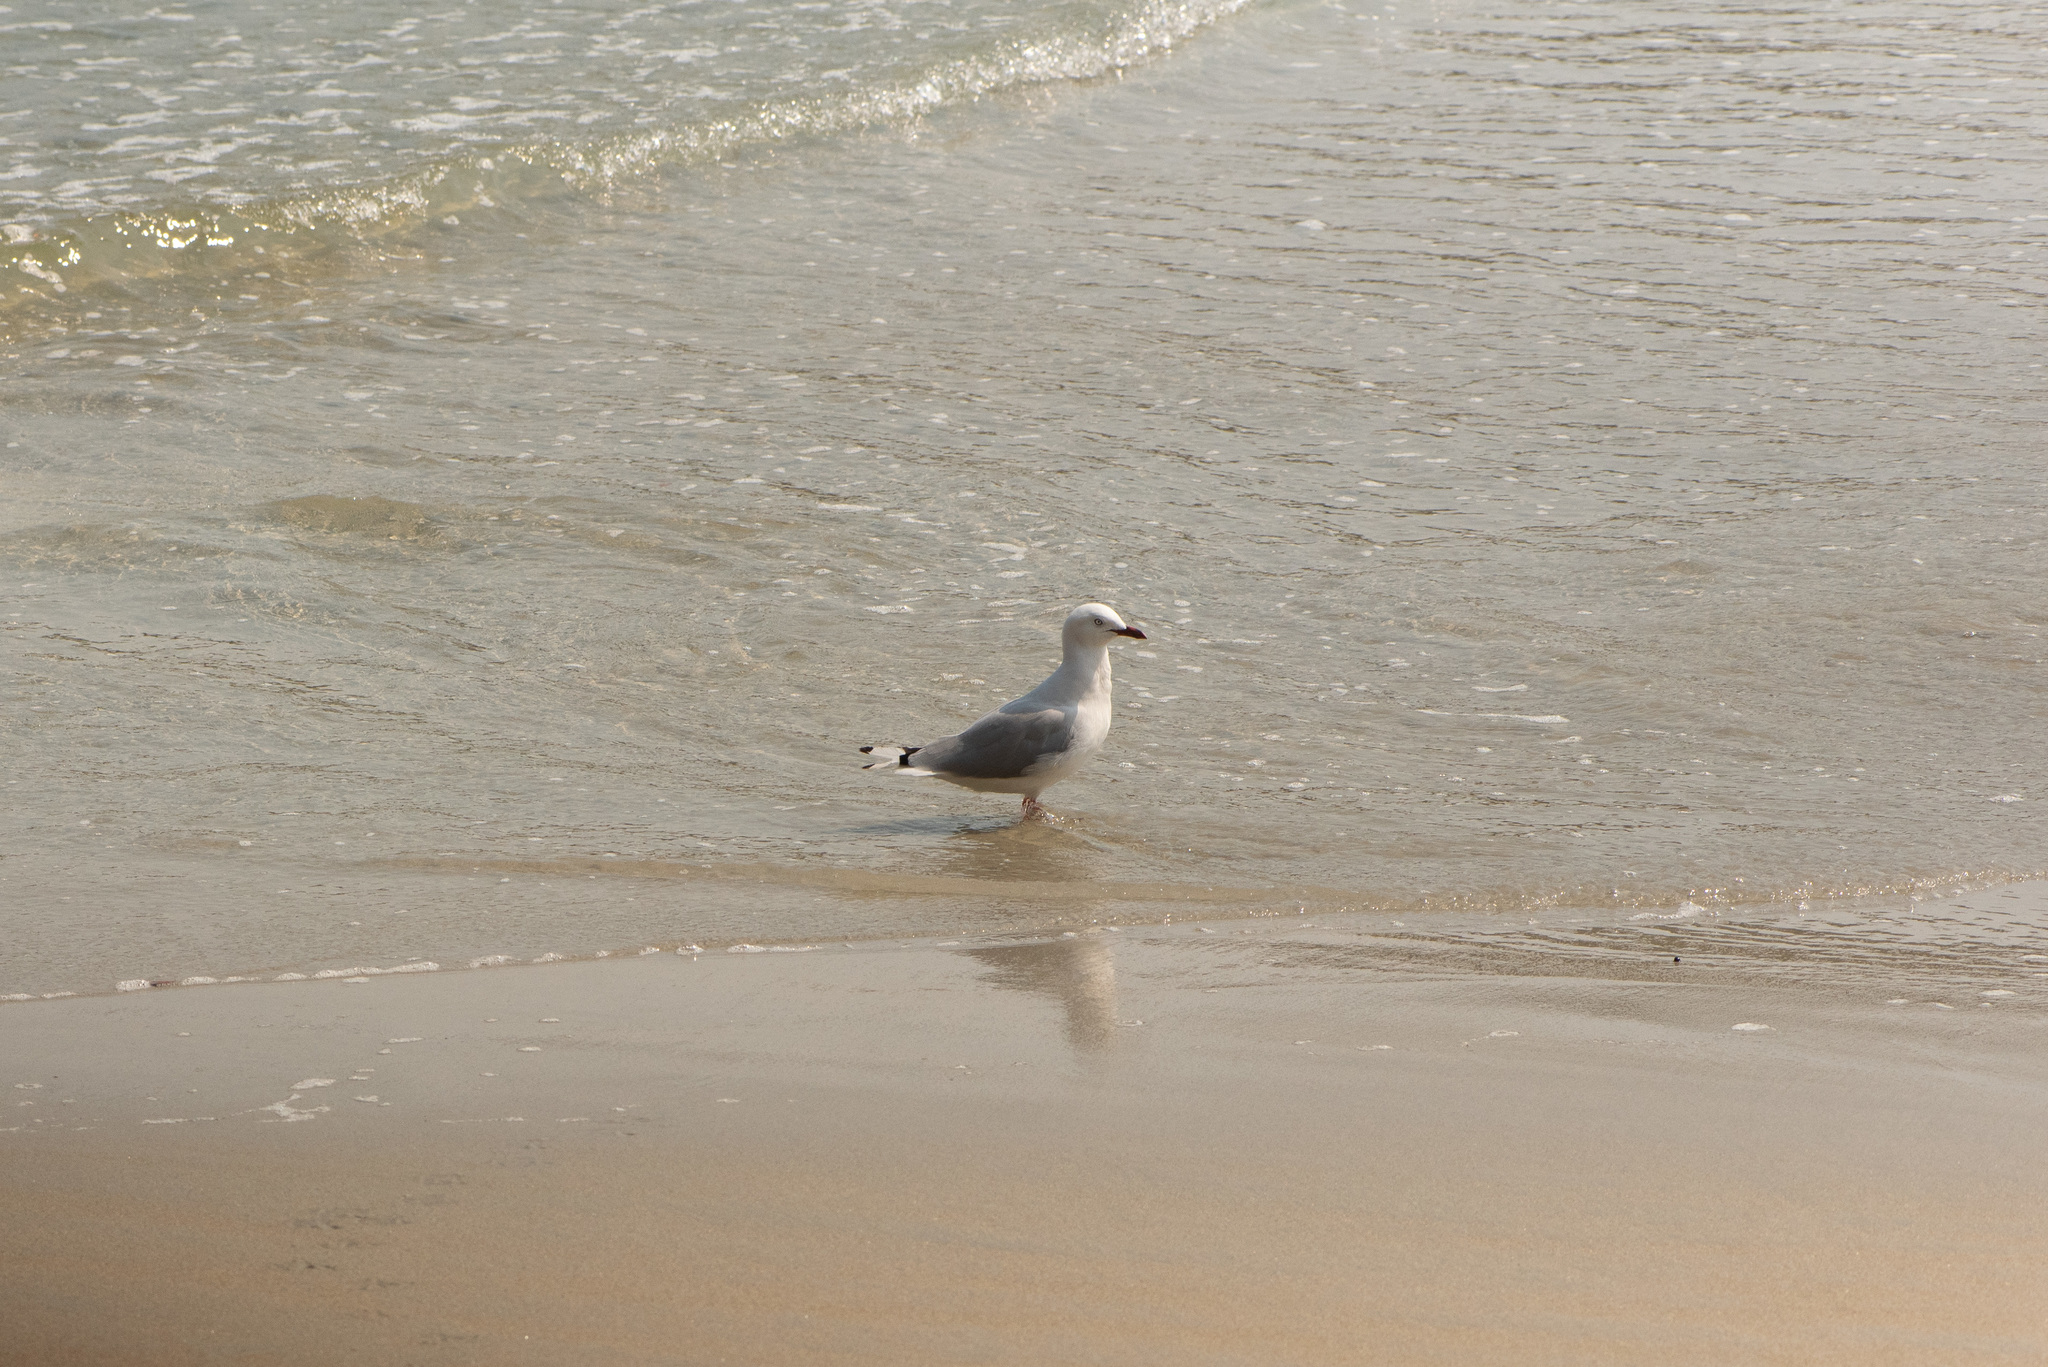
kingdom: Animalia
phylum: Chordata
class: Aves
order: Charadriiformes
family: Laridae
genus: Chroicocephalus
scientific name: Chroicocephalus novaehollandiae
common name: Silver gull
